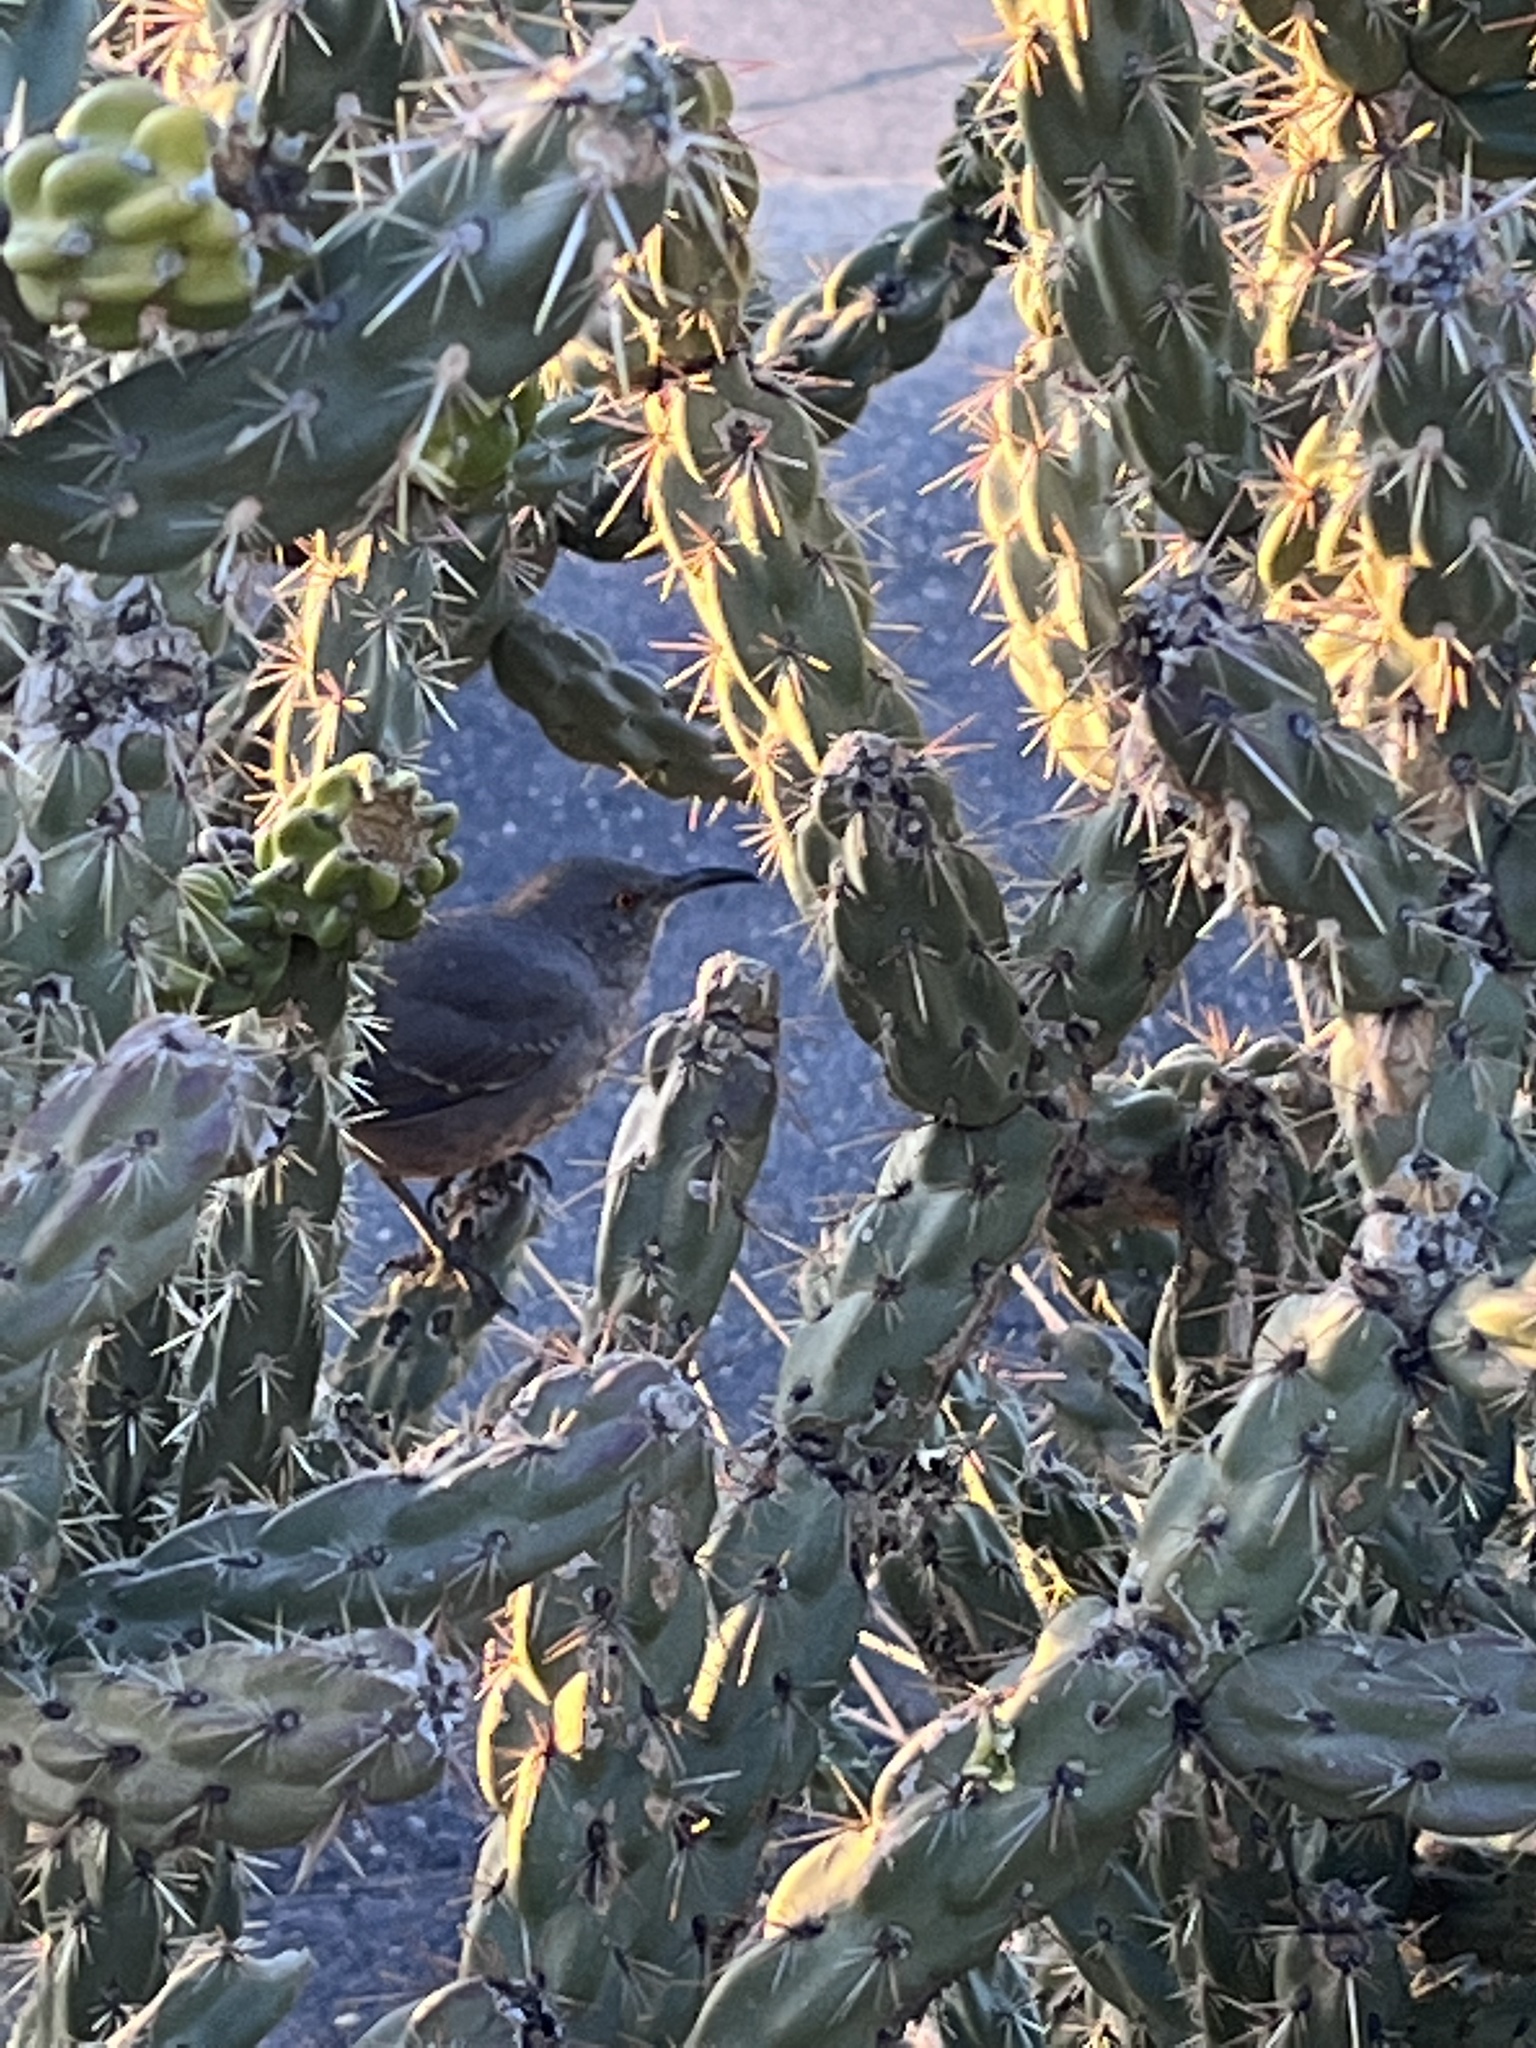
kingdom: Animalia
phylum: Chordata
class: Aves
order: Passeriformes
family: Mimidae
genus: Toxostoma
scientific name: Toxostoma curvirostre
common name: Curve-billed thrasher
